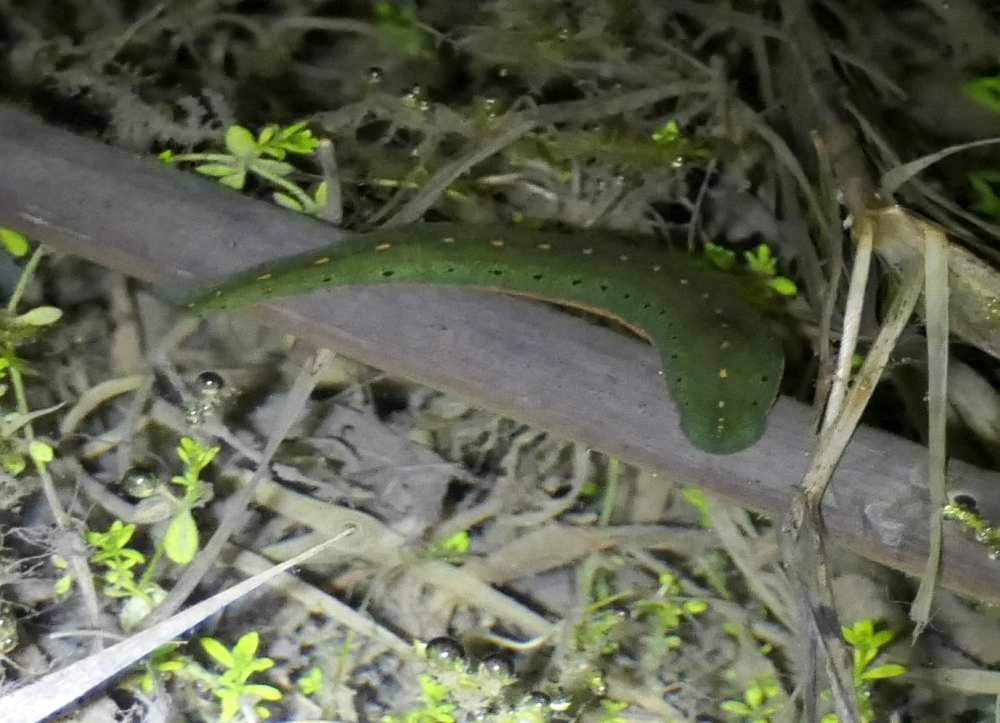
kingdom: Animalia
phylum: Annelida
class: Clitellata
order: Arhynchobdellida
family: Hirudinidae
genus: Macrobdella
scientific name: Macrobdella decora
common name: North american leech
